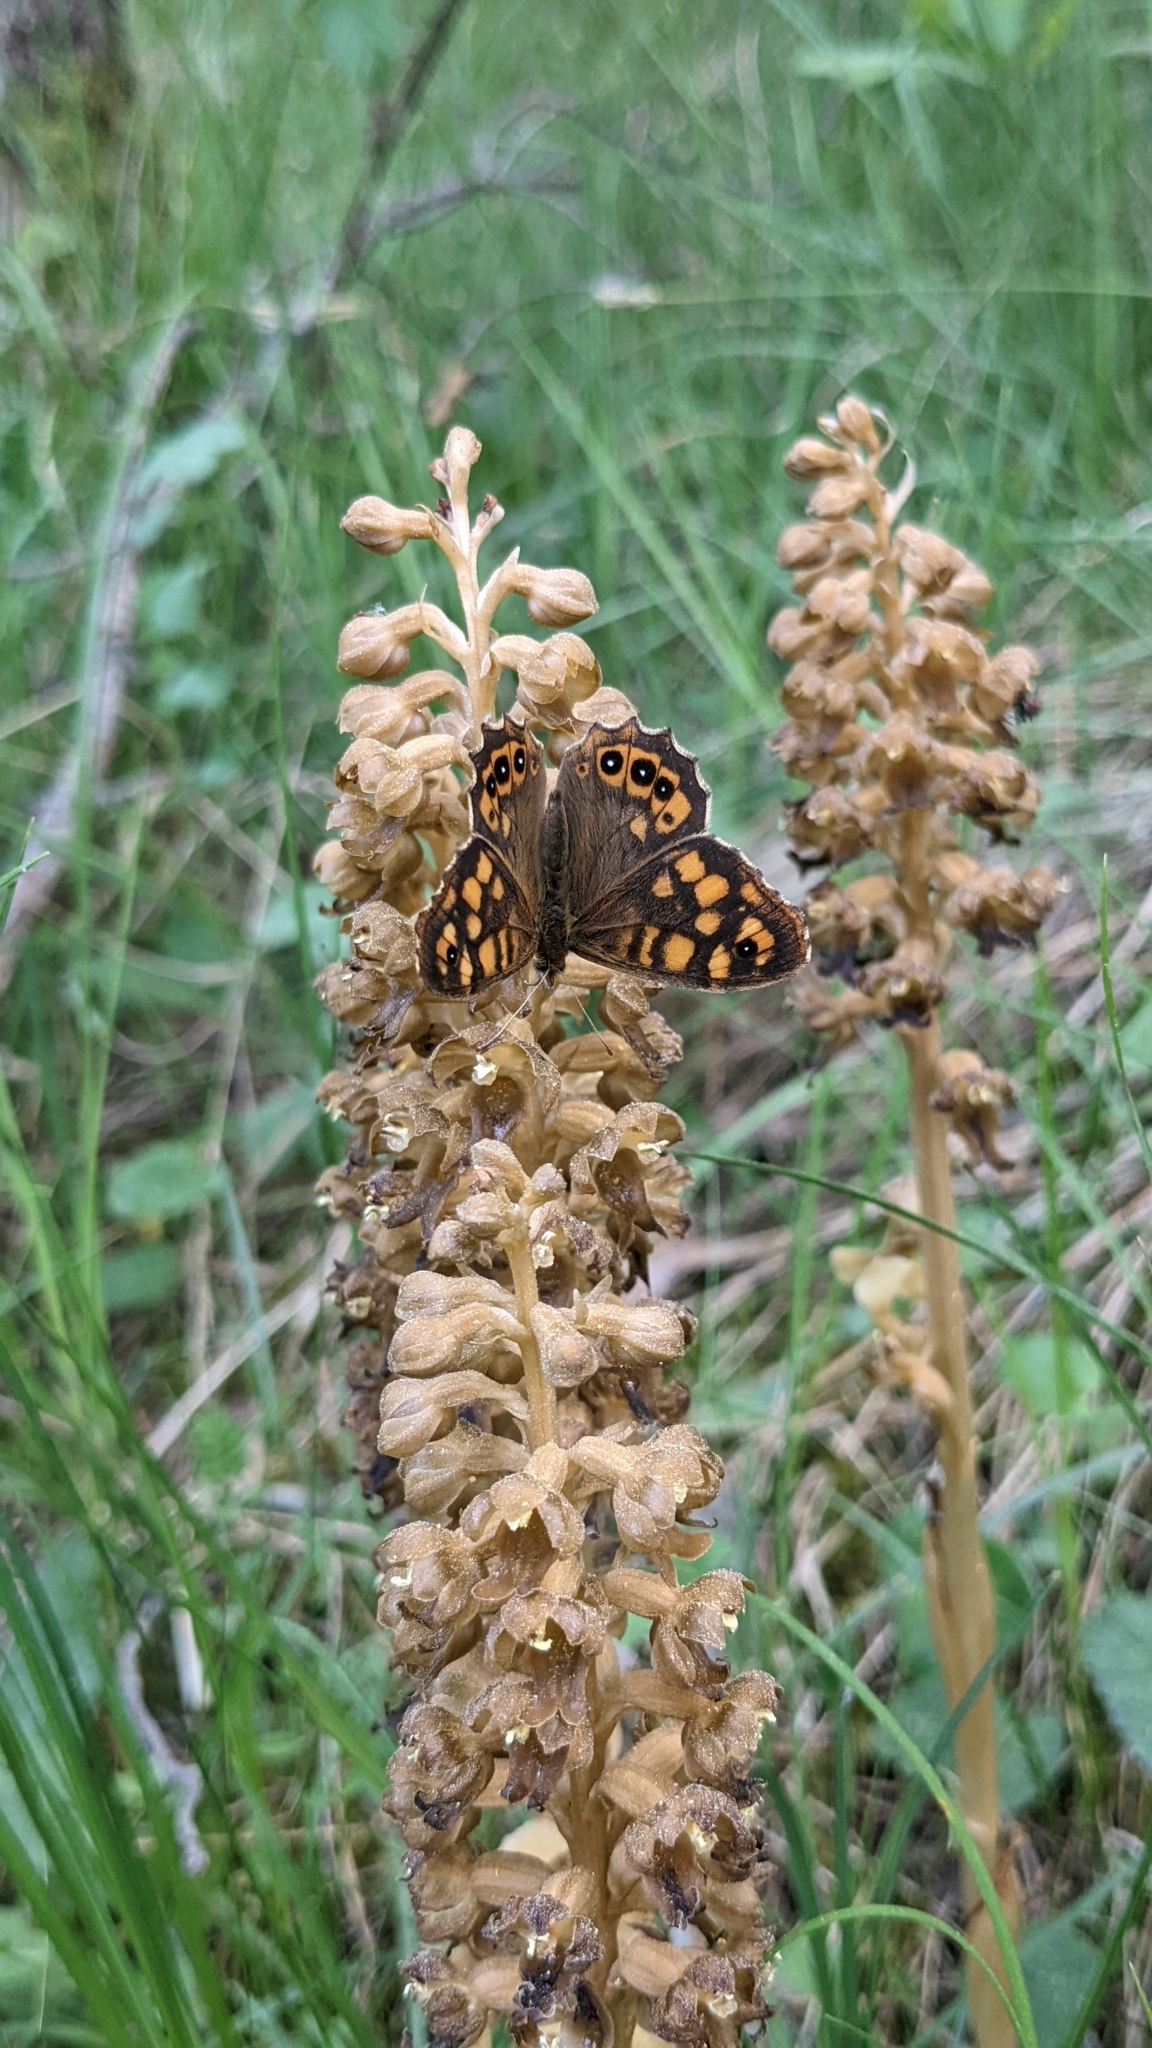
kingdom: Animalia
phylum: Arthropoda
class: Insecta
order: Lepidoptera
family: Nymphalidae
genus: Pararge
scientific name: Pararge aegeria
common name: Speckled wood
